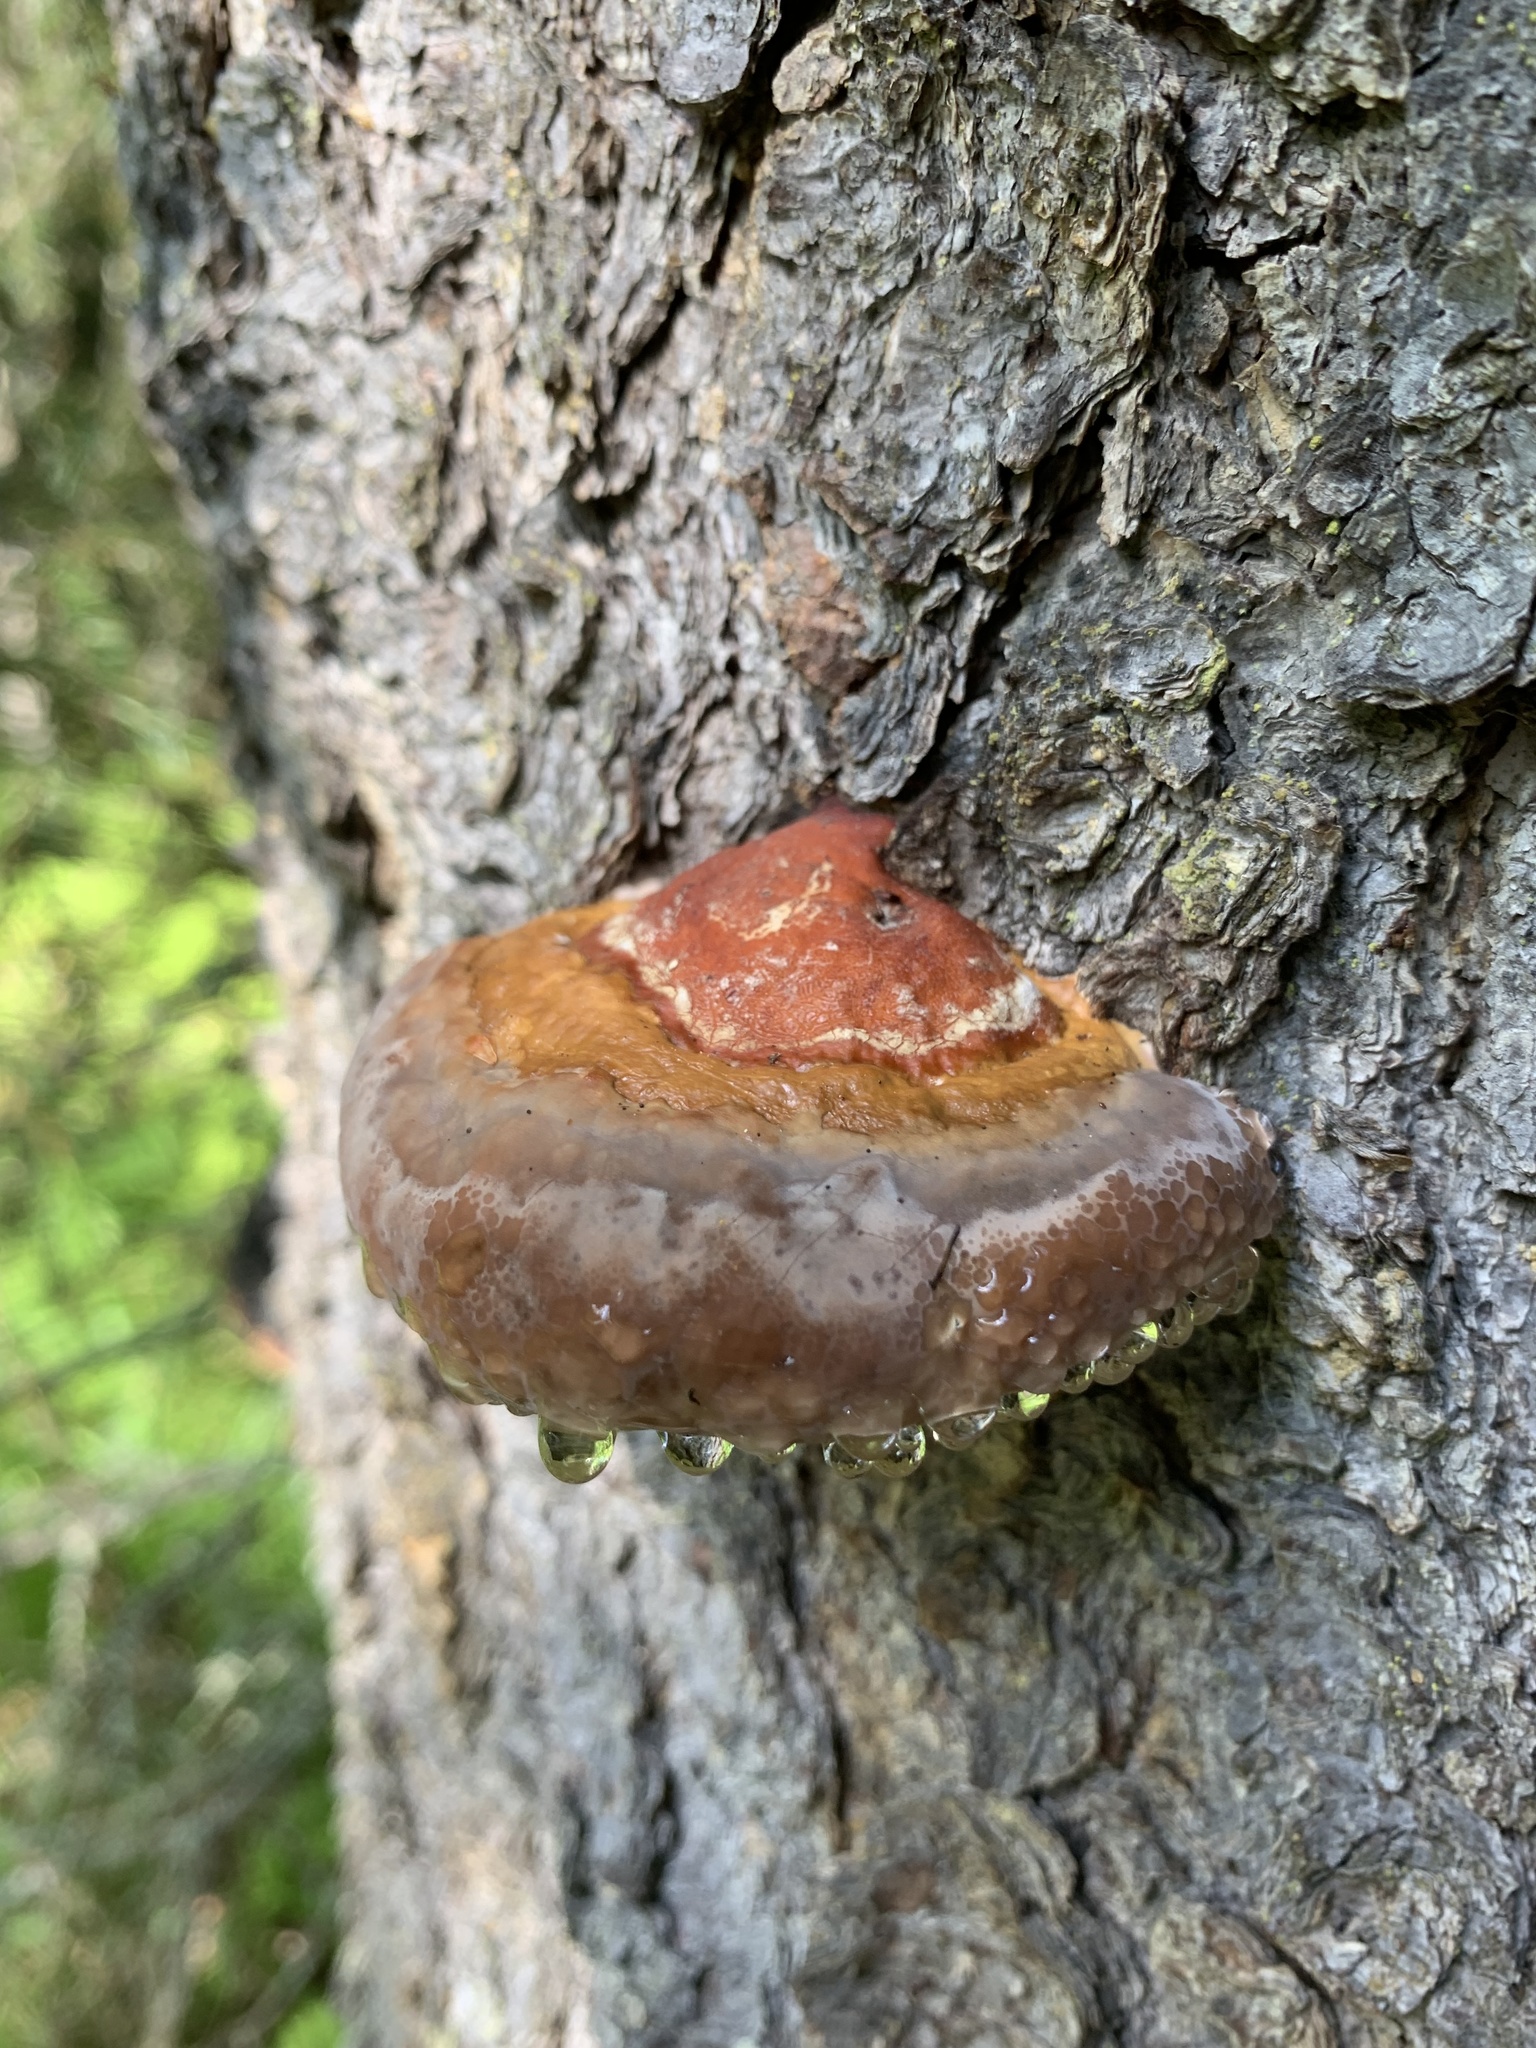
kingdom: Fungi
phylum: Basidiomycota
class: Agaricomycetes
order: Polyporales
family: Fomitopsidaceae
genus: Fomitopsis
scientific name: Fomitopsis pinicola
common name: Red-belted bracket
